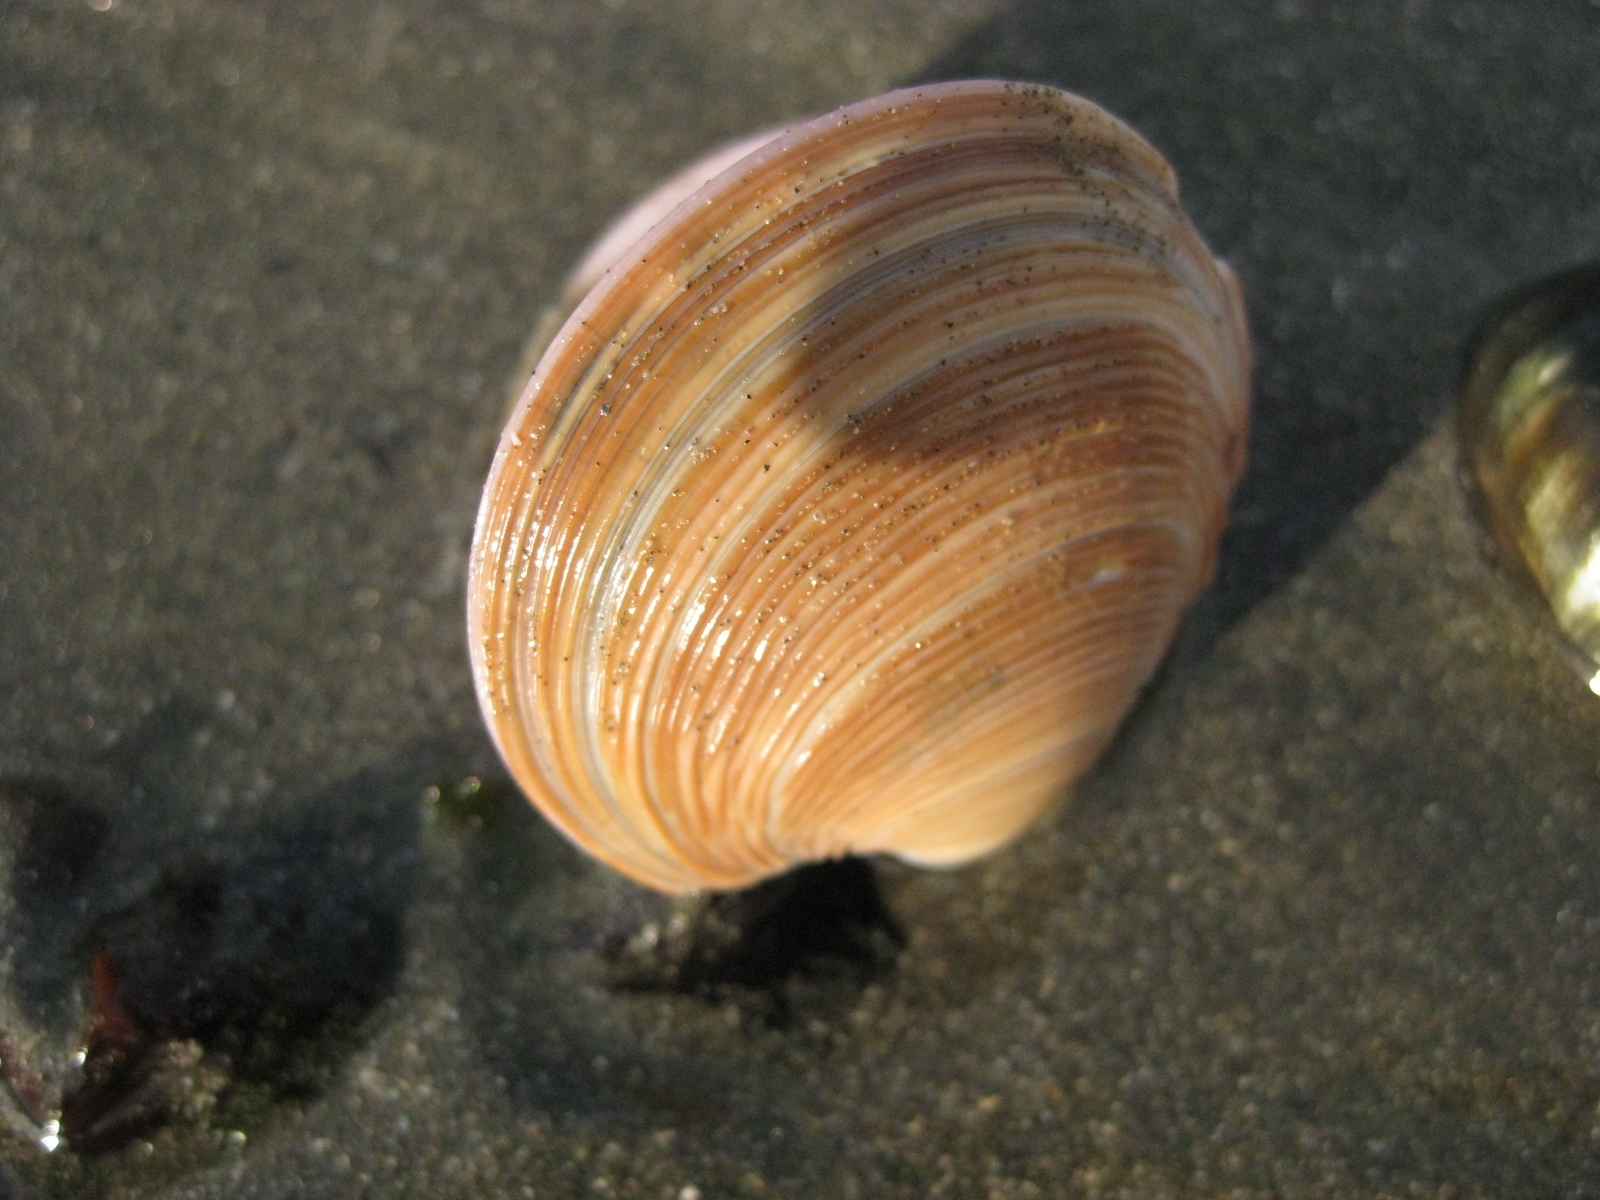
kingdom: Animalia
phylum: Mollusca
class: Bivalvia
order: Venerida
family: Veneridae
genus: Dosinia
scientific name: Dosinia anus
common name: Old-woman dosinia
